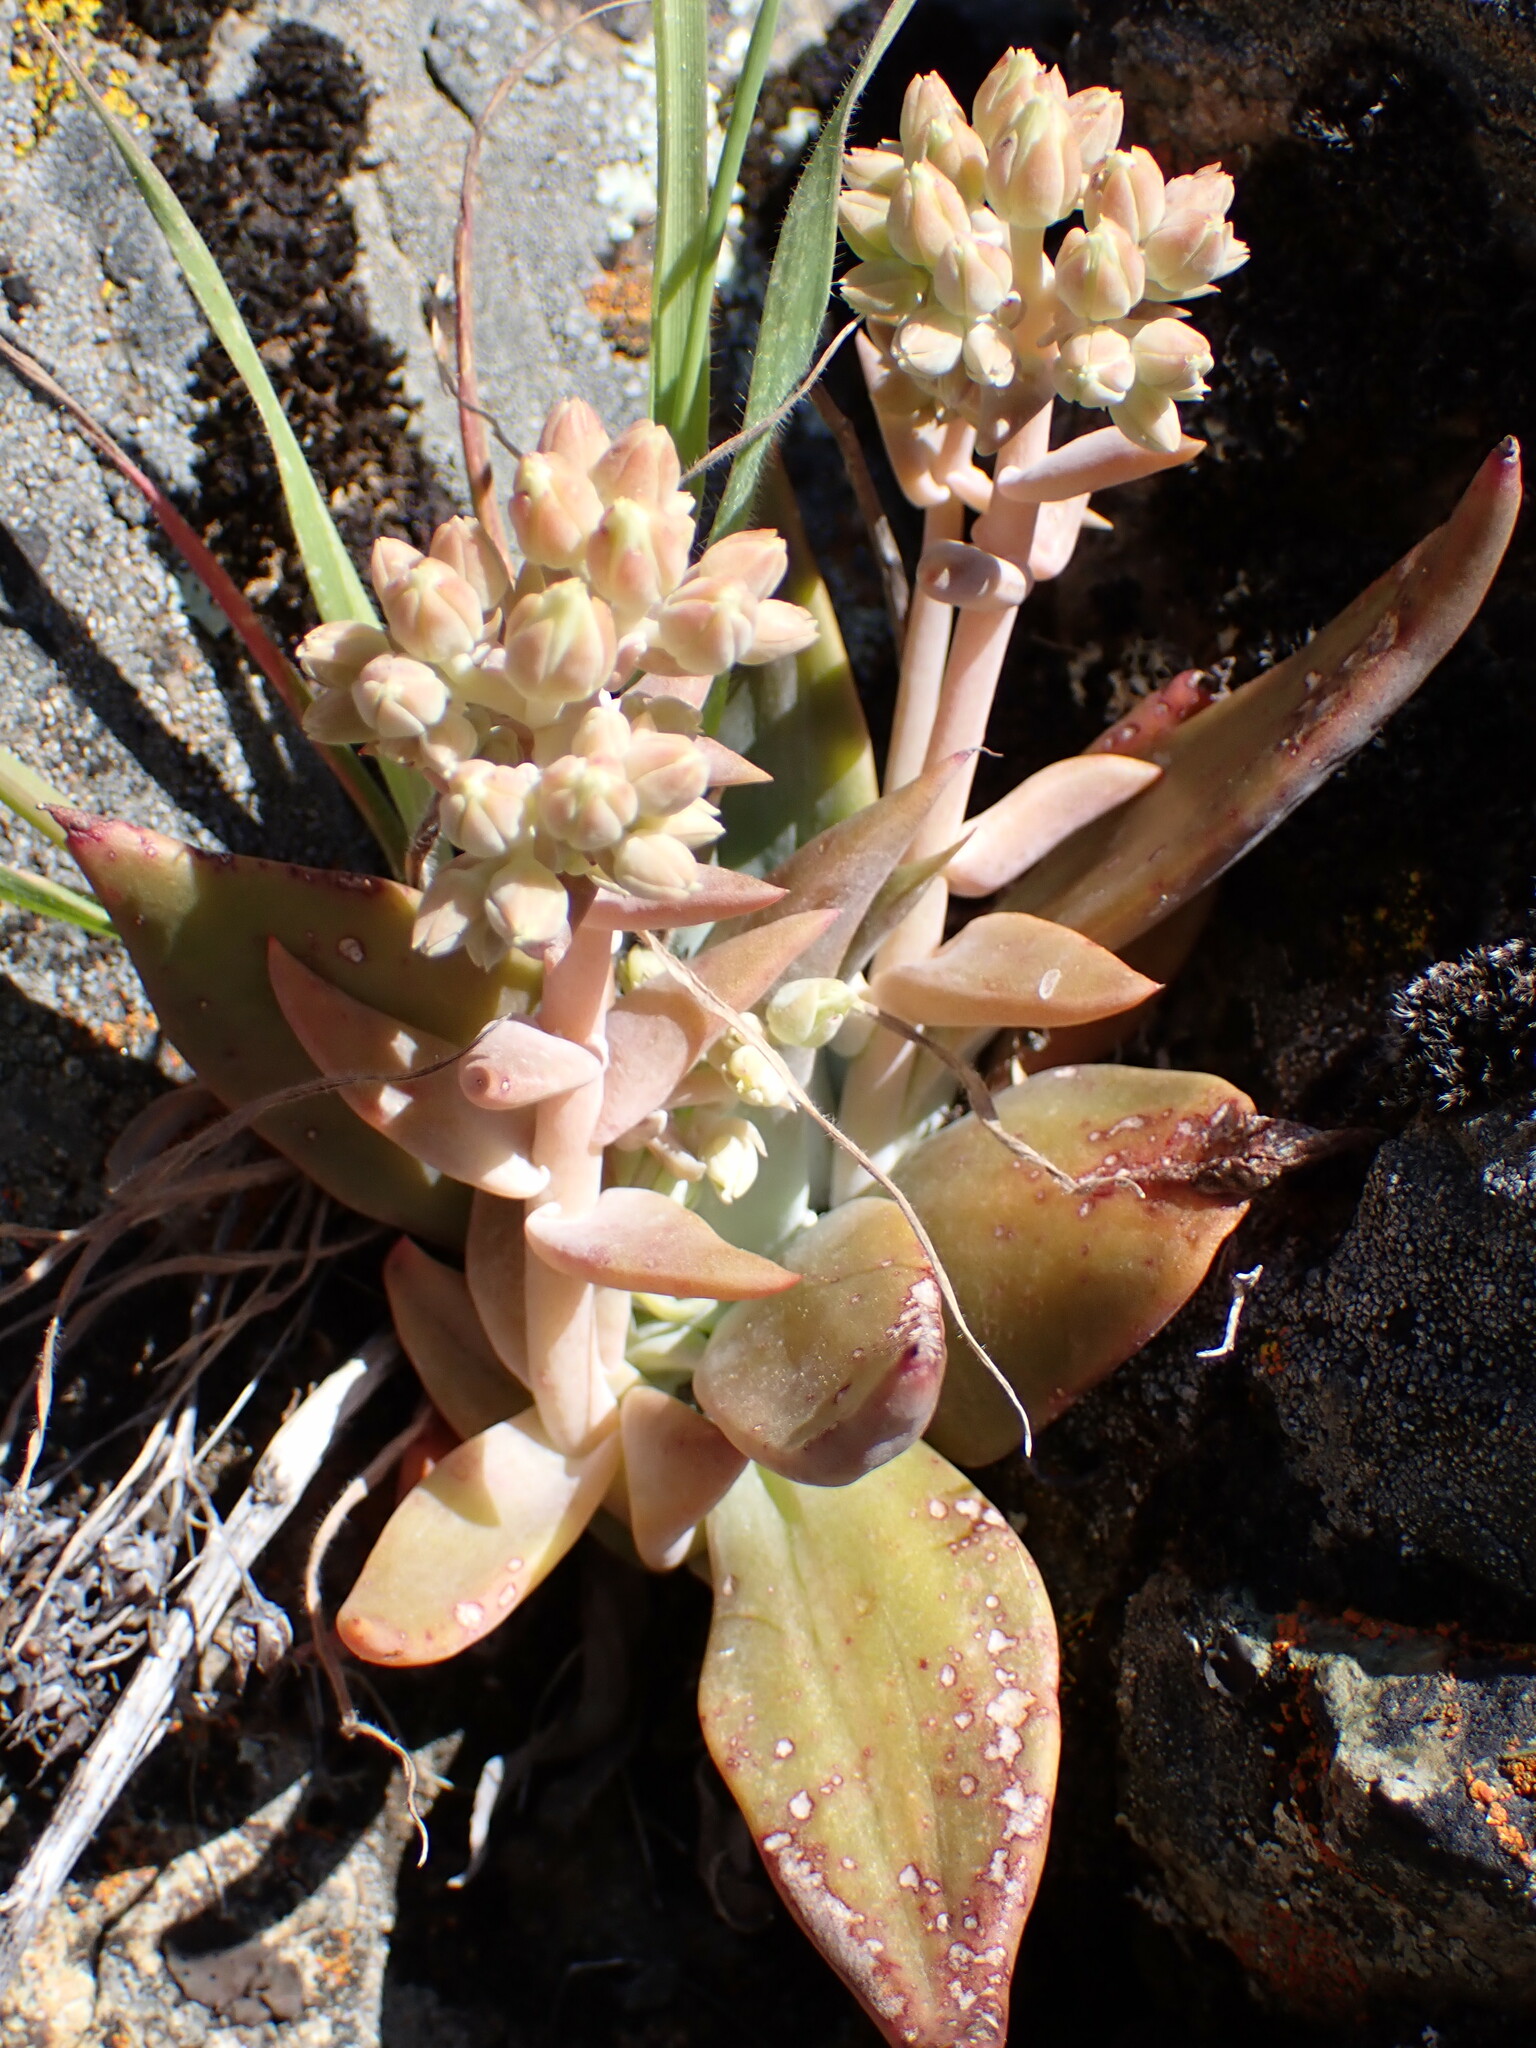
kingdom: Plantae
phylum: Tracheophyta
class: Magnoliopsida
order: Saxifragales
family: Crassulaceae
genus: Dudleya
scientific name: Dudleya cymosa
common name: Canyon dudleya
